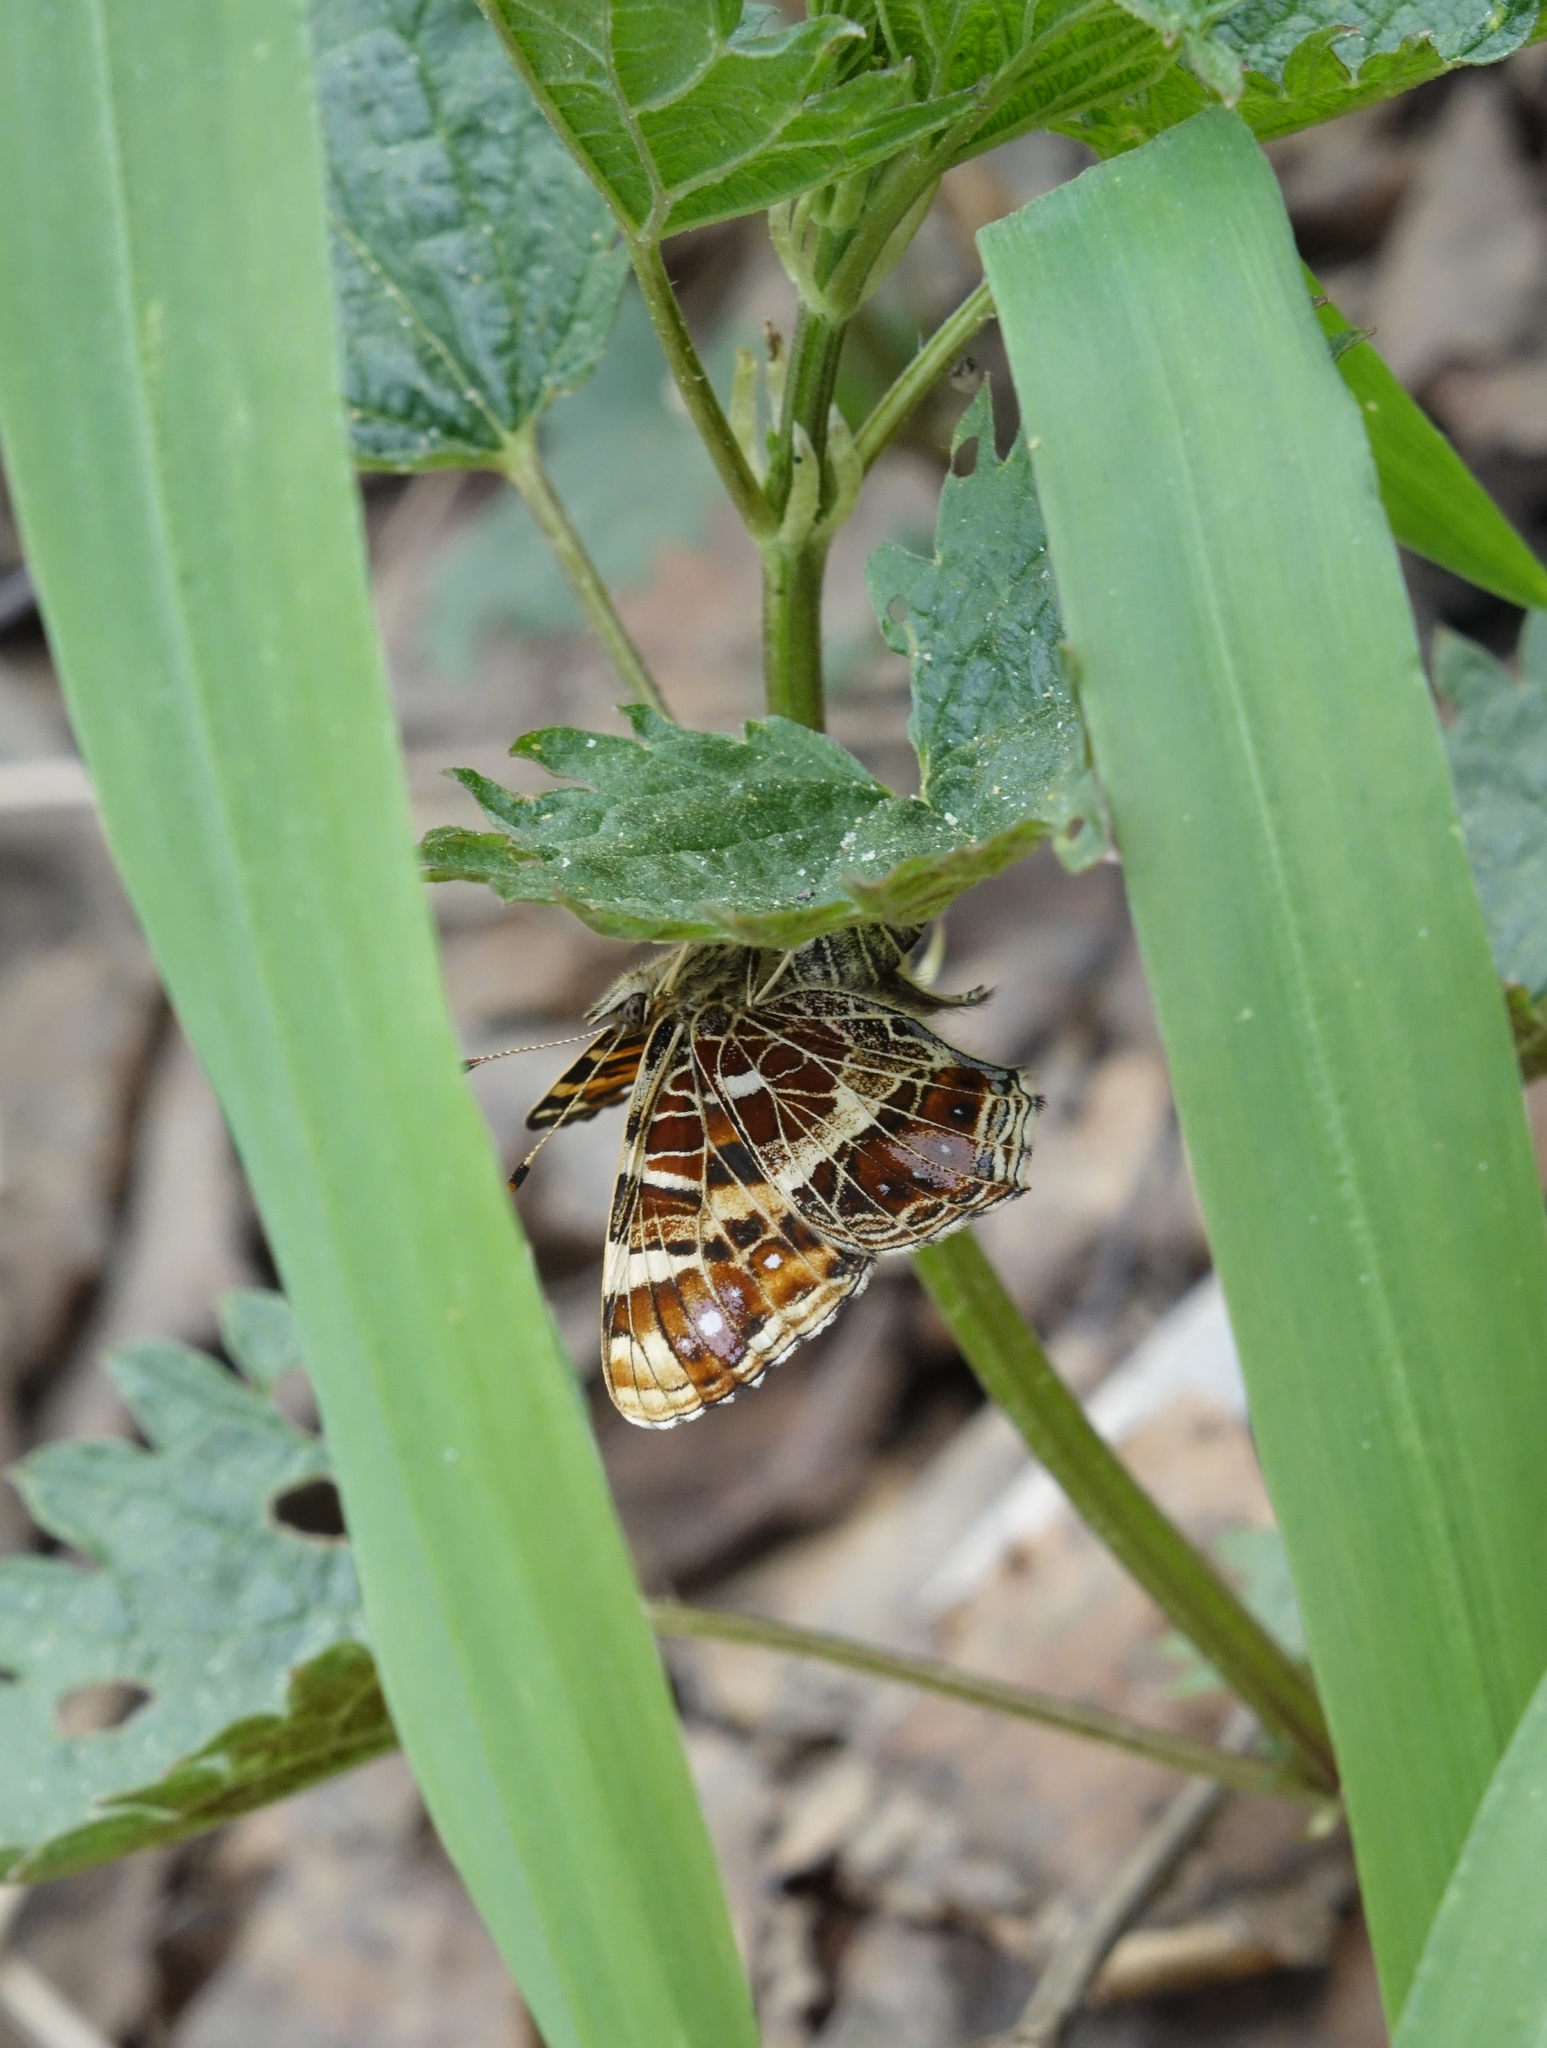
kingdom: Animalia
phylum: Arthropoda
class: Insecta
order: Lepidoptera
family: Nymphalidae
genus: Araschnia
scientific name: Araschnia levana
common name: Map butterfly
